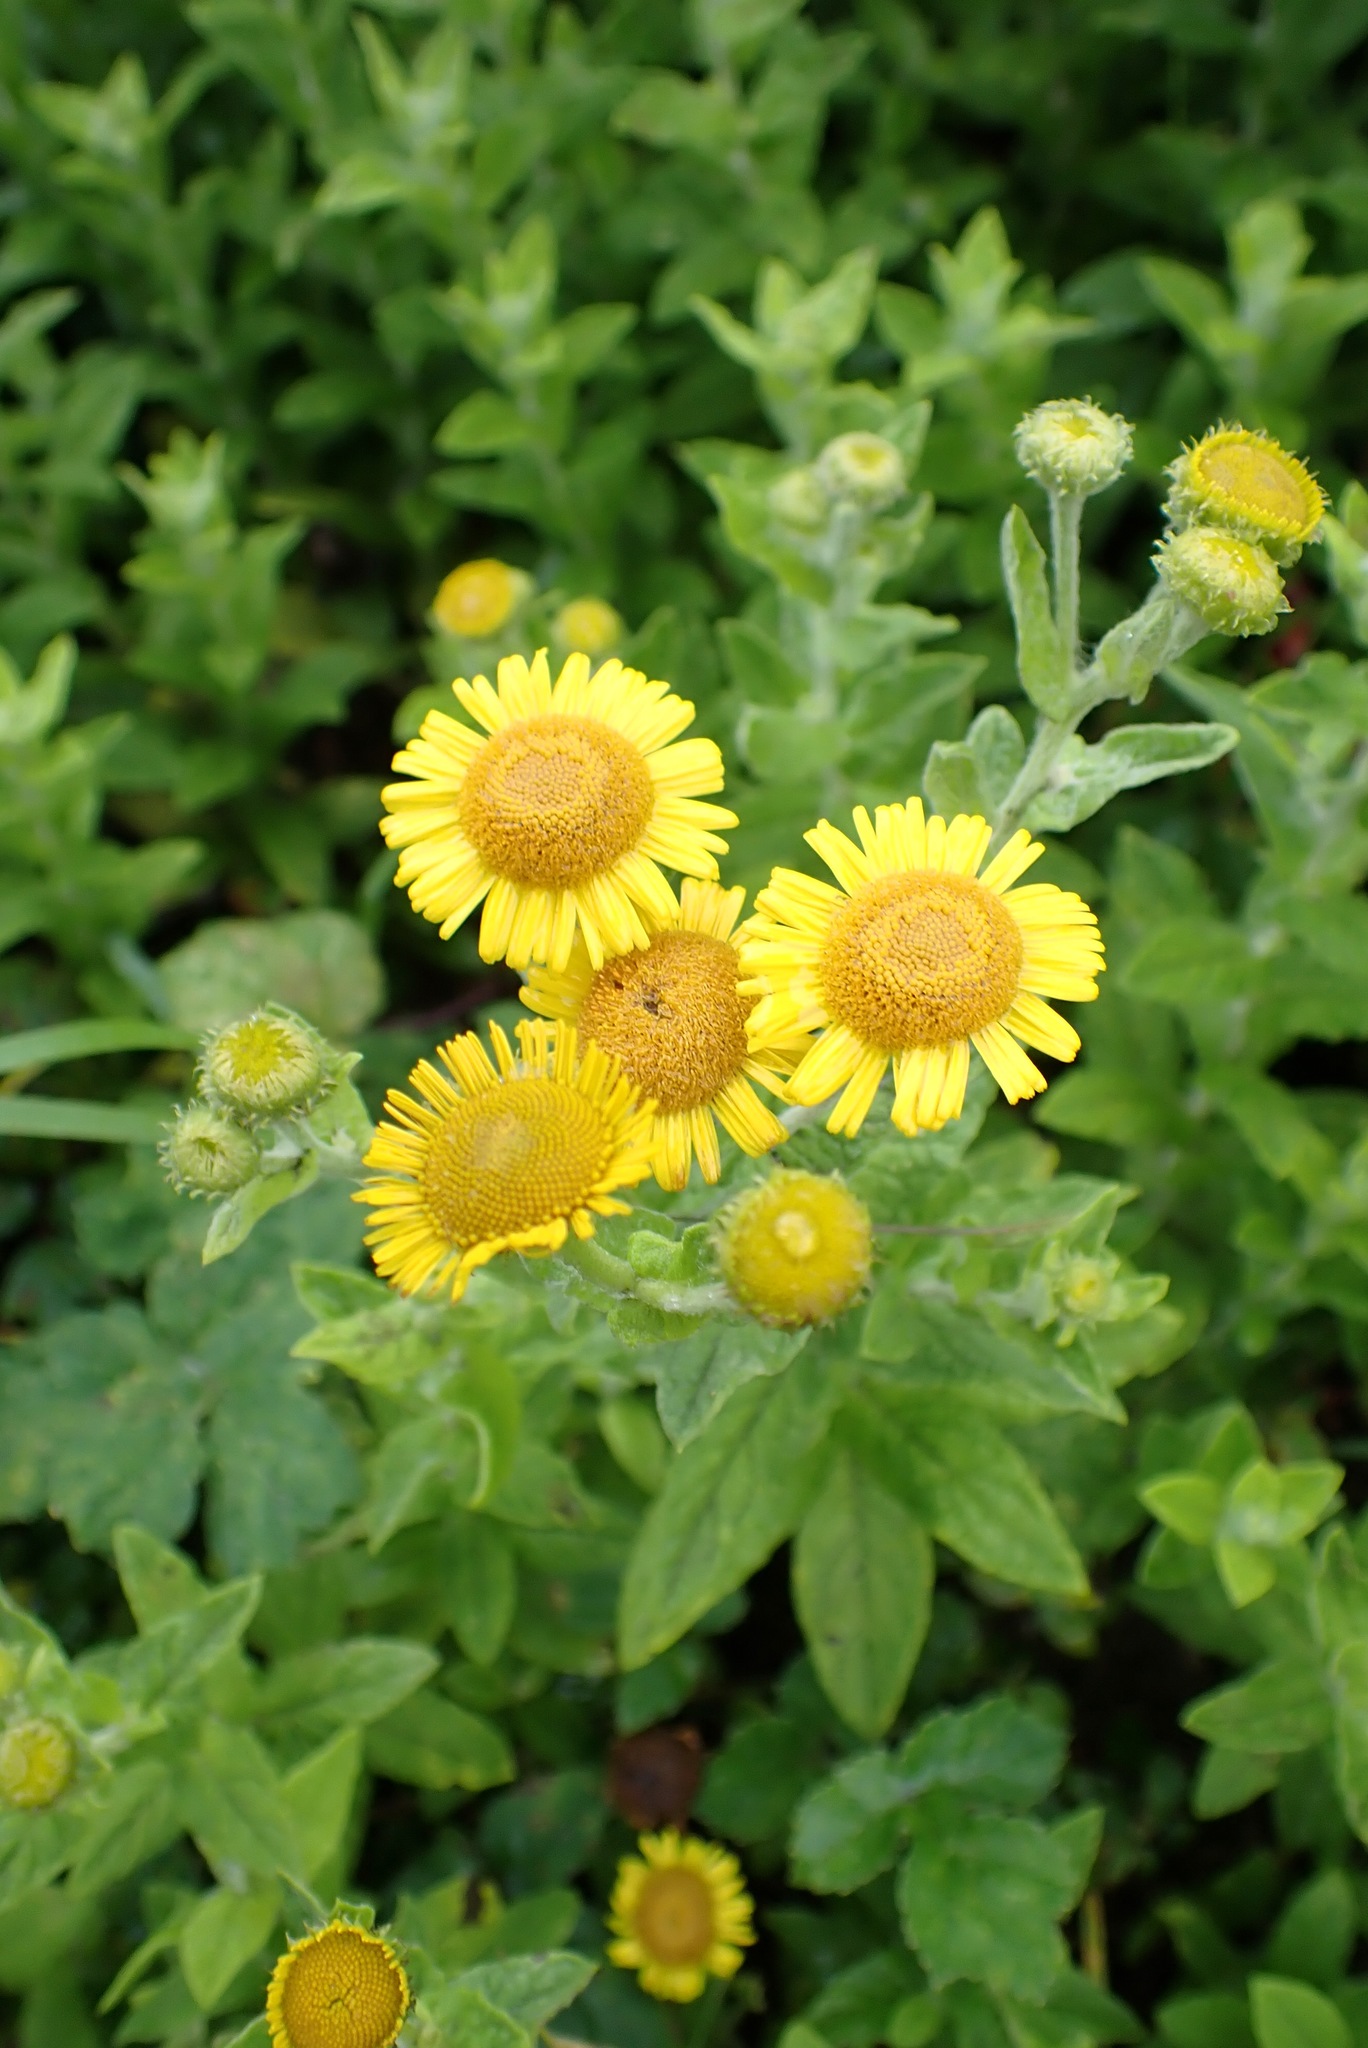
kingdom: Plantae
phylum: Tracheophyta
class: Magnoliopsida
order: Asterales
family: Asteraceae
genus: Pulicaria
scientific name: Pulicaria dysenterica
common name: Common fleabane
